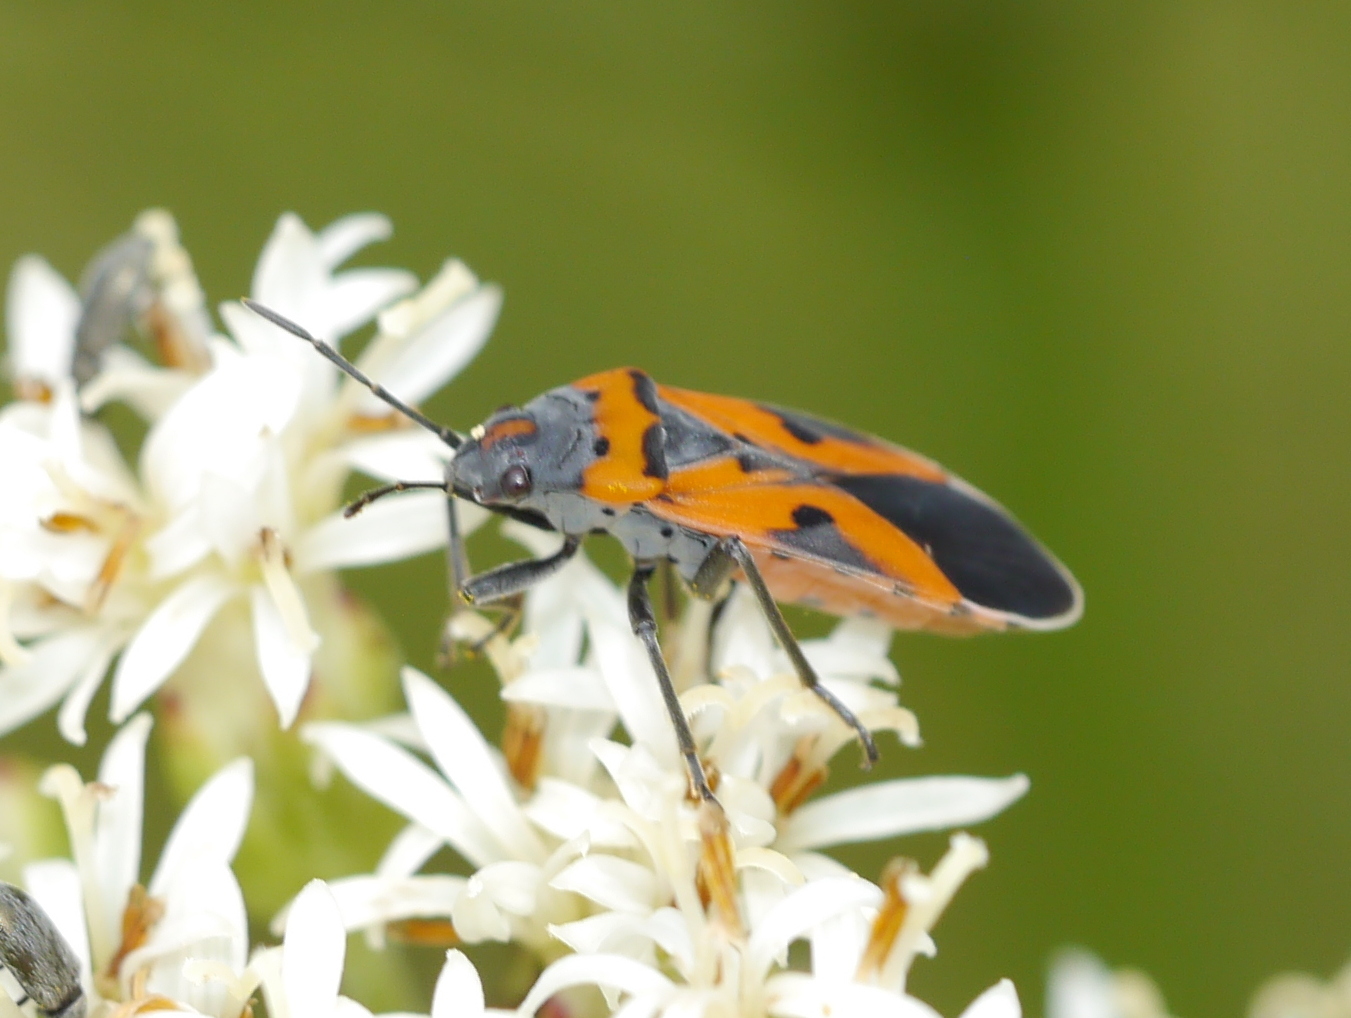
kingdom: Animalia
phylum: Arthropoda
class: Insecta
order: Hemiptera
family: Lygaeidae
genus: Lygaeus
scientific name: Lygaeus reclivatus
